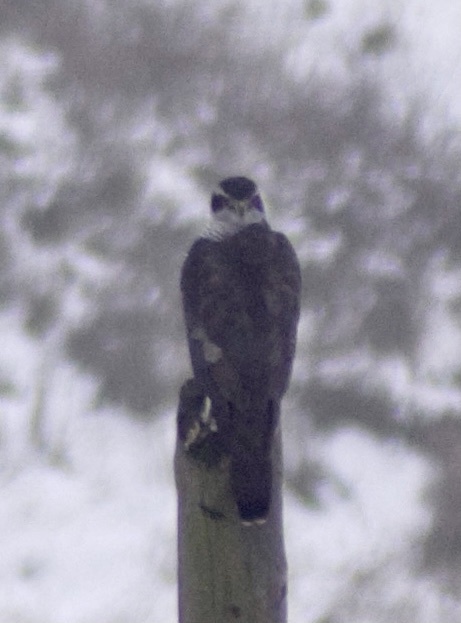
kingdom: Animalia
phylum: Chordata
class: Aves
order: Accipitriformes
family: Accipitridae
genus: Accipiter
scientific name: Accipiter gentilis
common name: Northern goshawk
